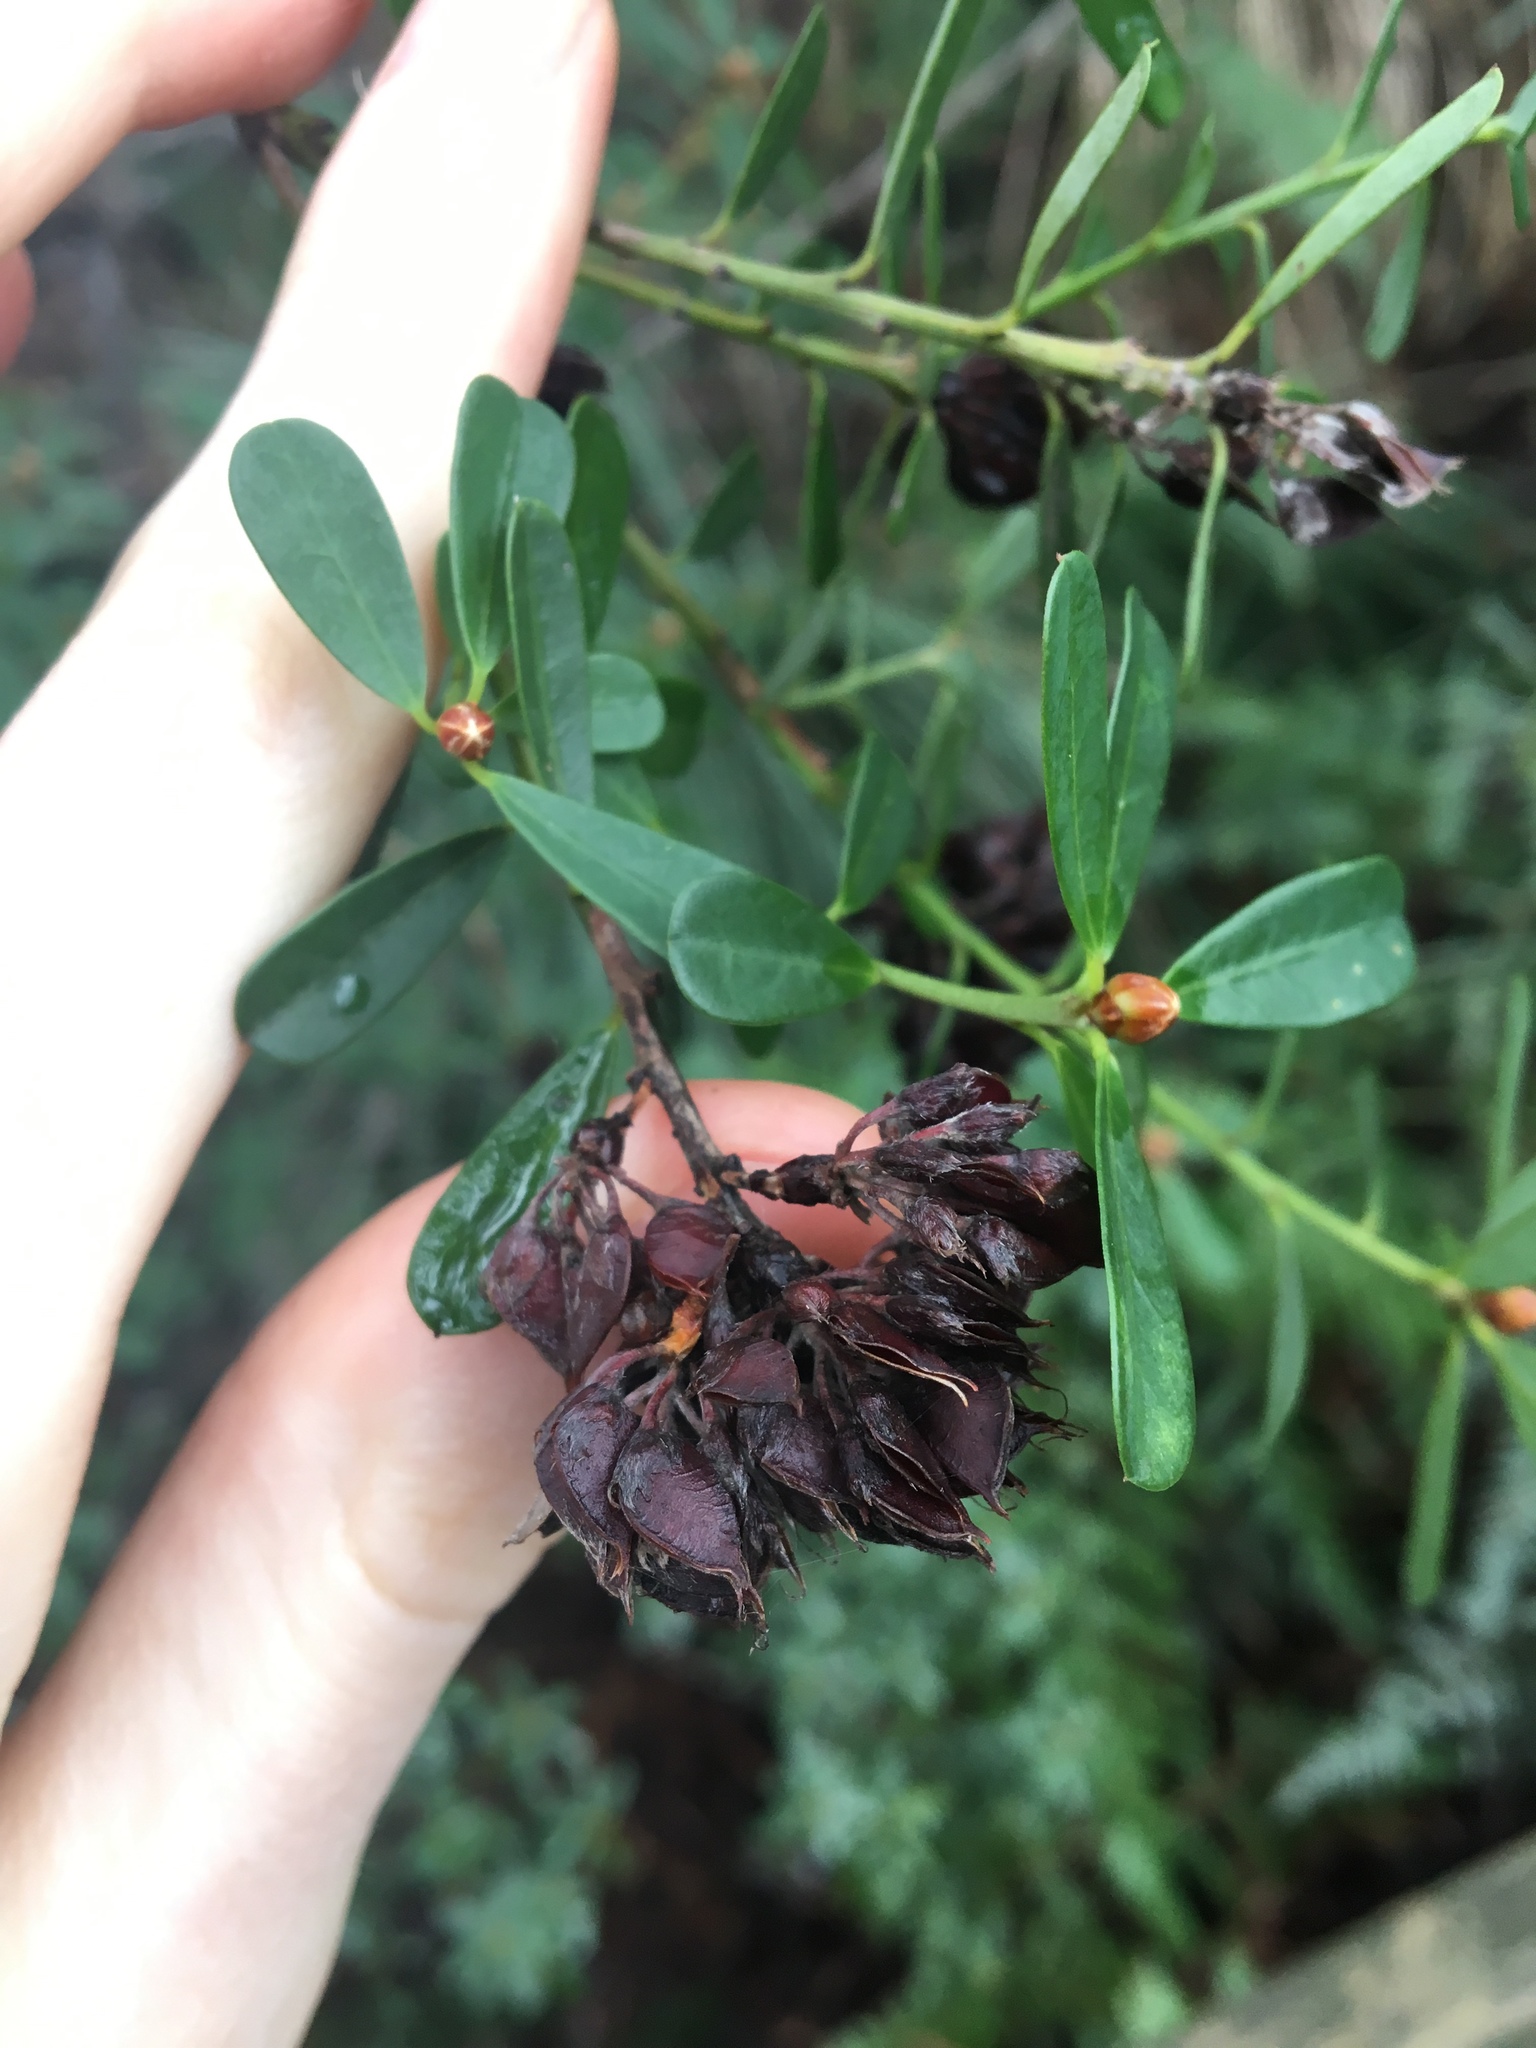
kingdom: Plantae
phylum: Tracheophyta
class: Magnoliopsida
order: Fabales
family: Fabaceae
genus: Pultenaea
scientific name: Pultenaea daphnoides
